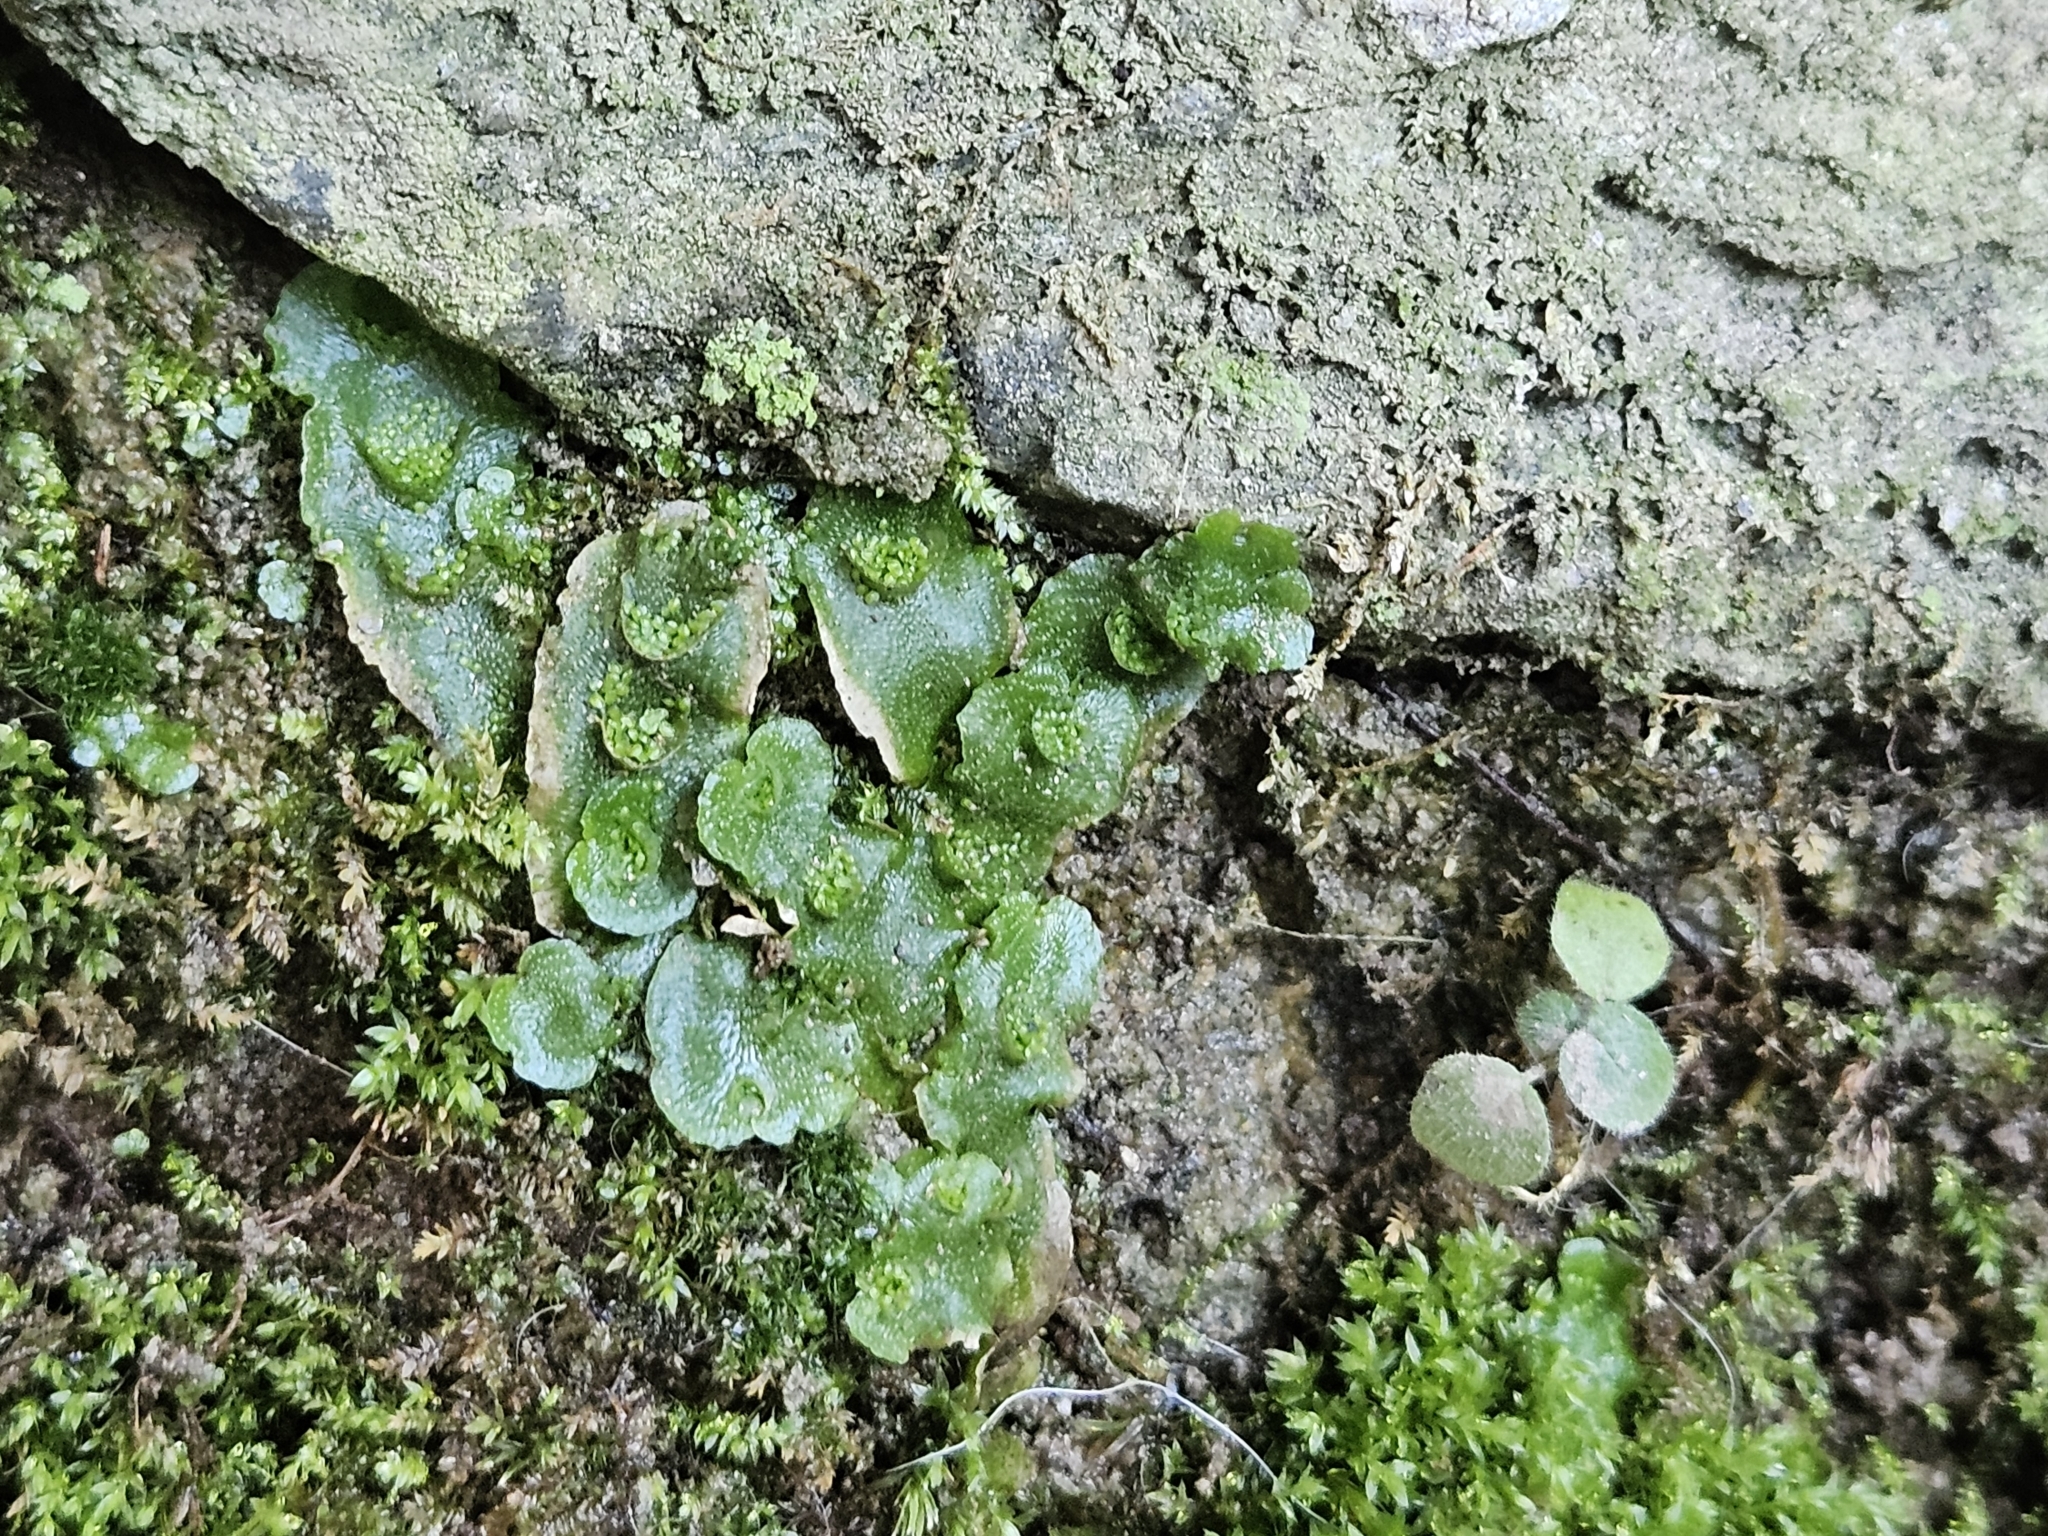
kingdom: Plantae
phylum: Marchantiophyta
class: Marchantiopsida
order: Lunulariales
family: Lunulariaceae
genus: Lunularia
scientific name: Lunularia cruciata
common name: Crescent-cup liverwort
